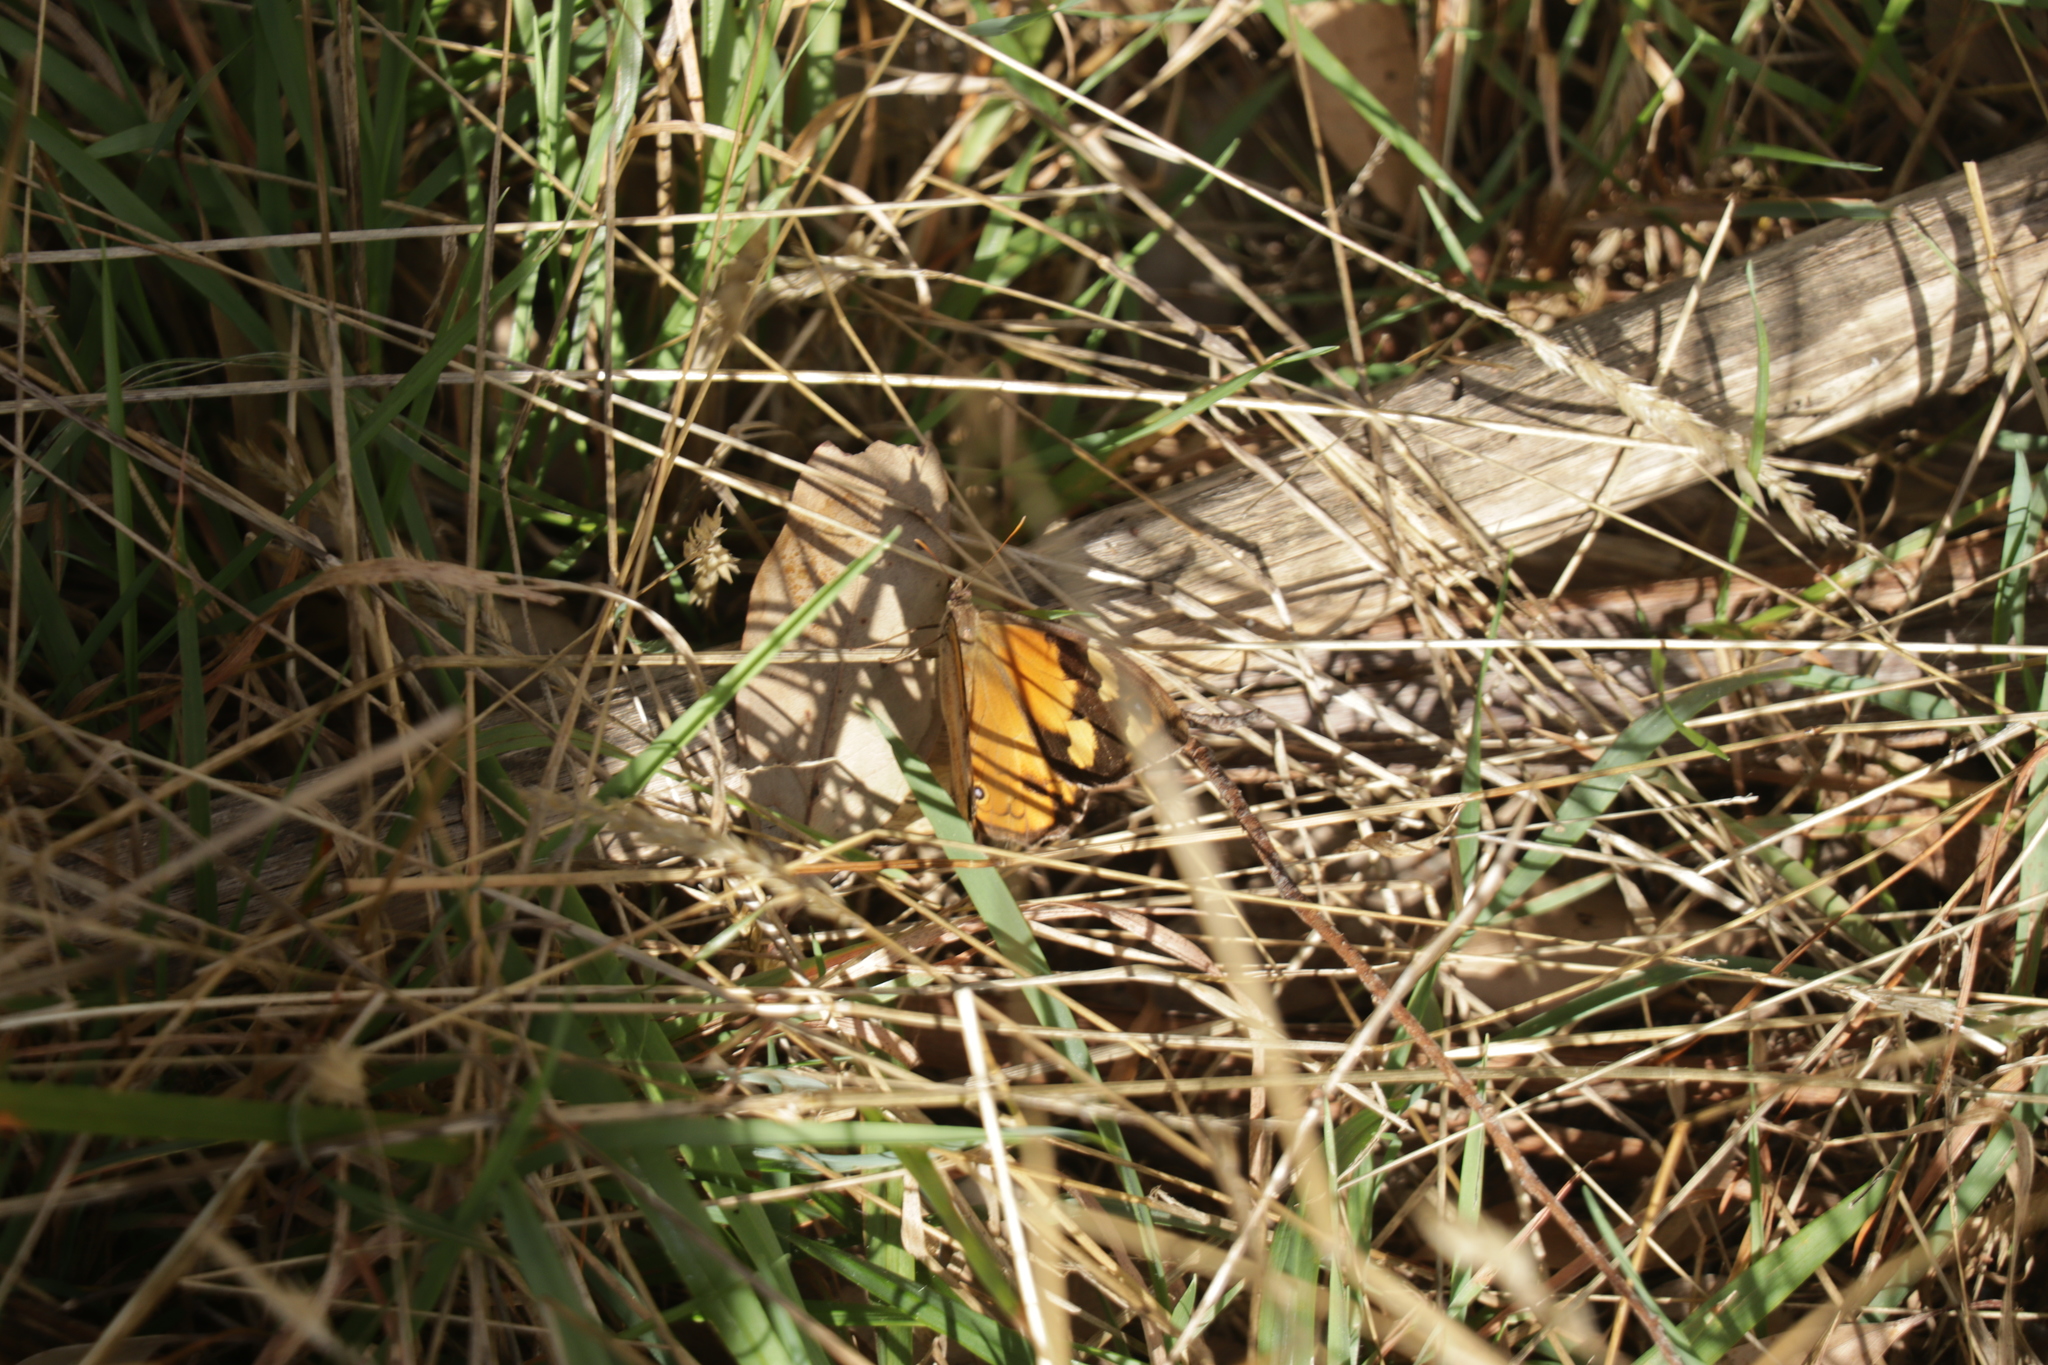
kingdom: Animalia
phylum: Arthropoda
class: Insecta
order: Lepidoptera
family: Nymphalidae
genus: Heteronympha
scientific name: Heteronympha merope
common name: Common brown
